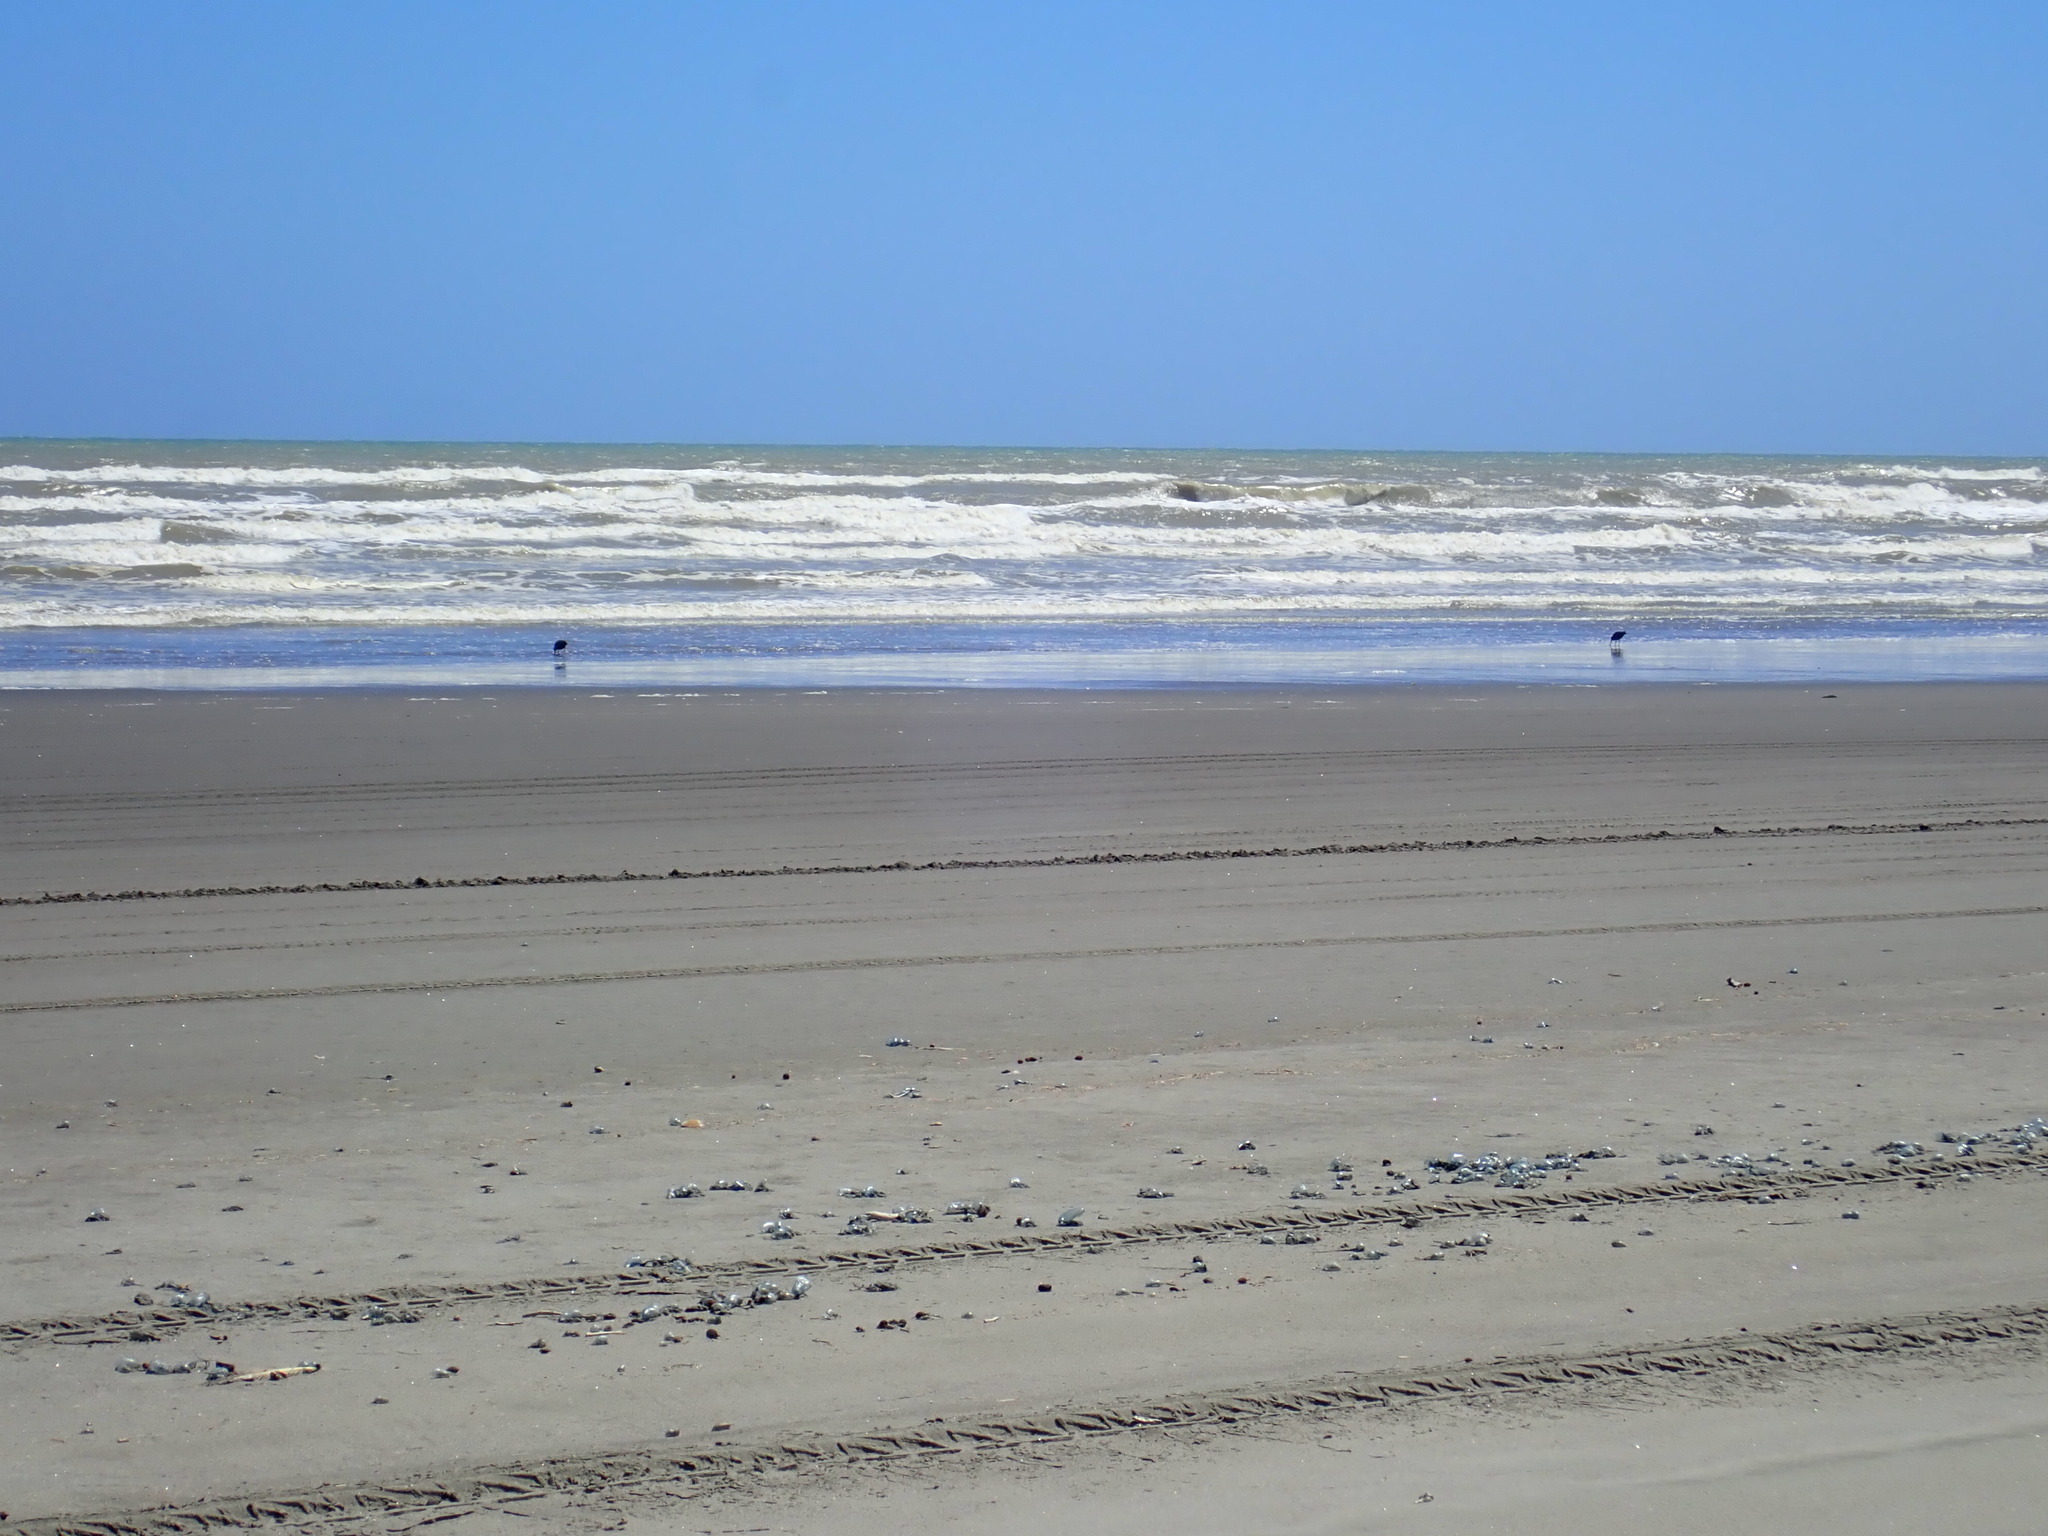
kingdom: Animalia
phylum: Chordata
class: Aves
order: Charadriiformes
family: Haematopodidae
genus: Haematopus
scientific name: Haematopus unicolor
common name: Variable oystercatcher
